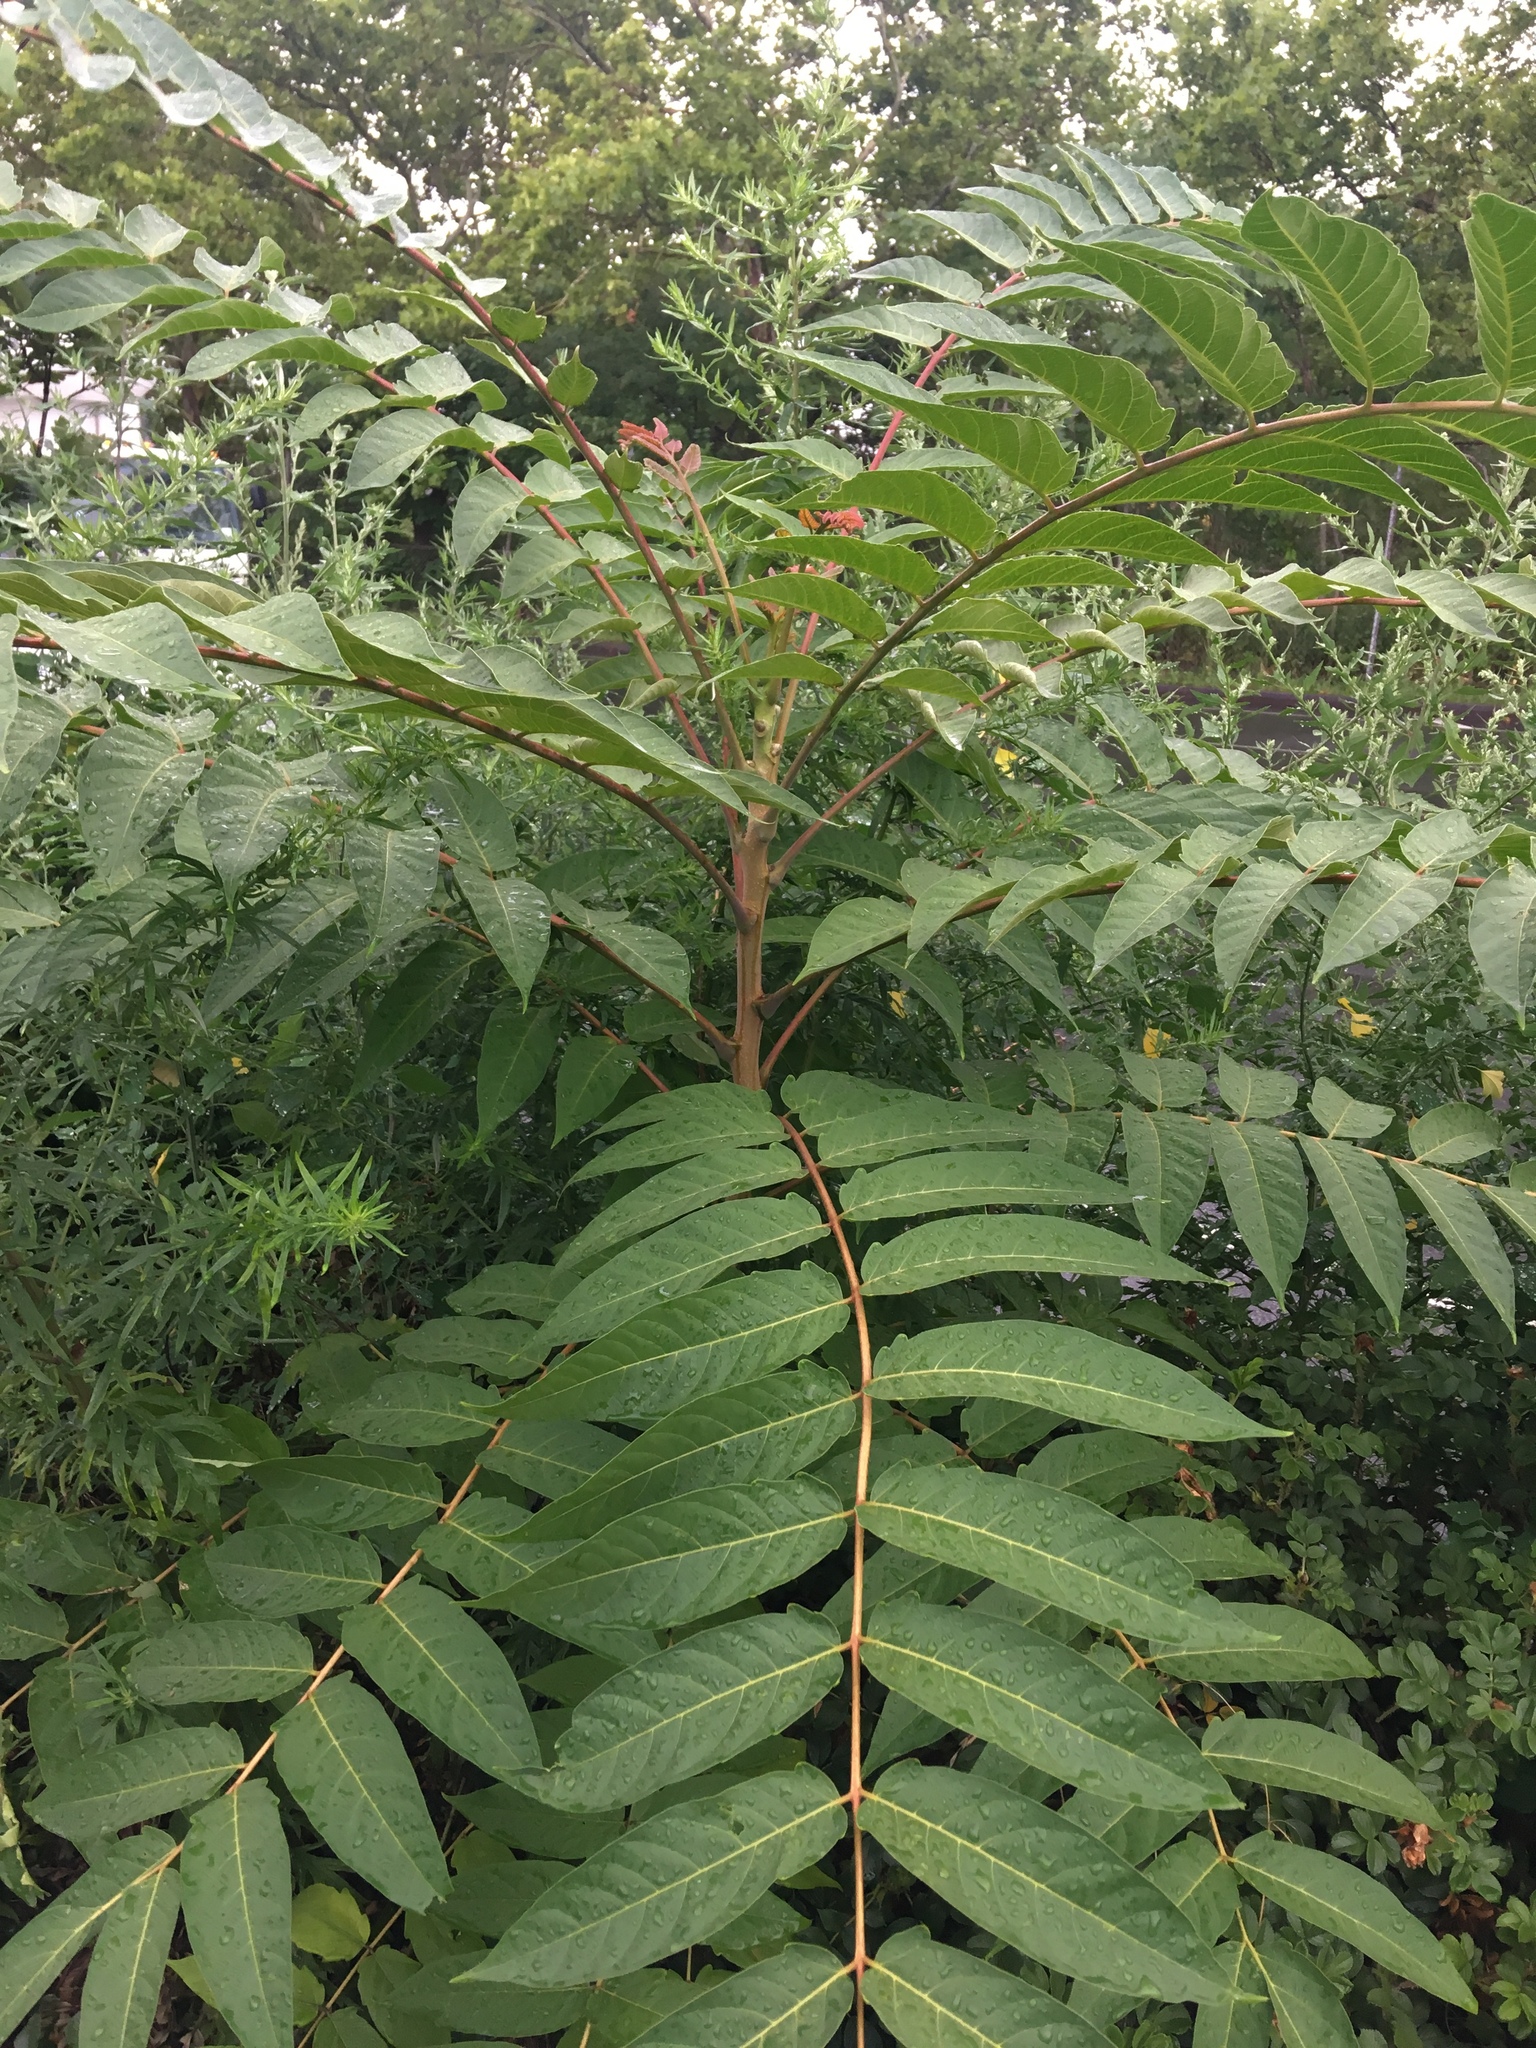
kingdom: Plantae
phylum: Tracheophyta
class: Magnoliopsida
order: Sapindales
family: Simaroubaceae
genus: Ailanthus
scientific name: Ailanthus altissima
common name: Tree-of-heaven
